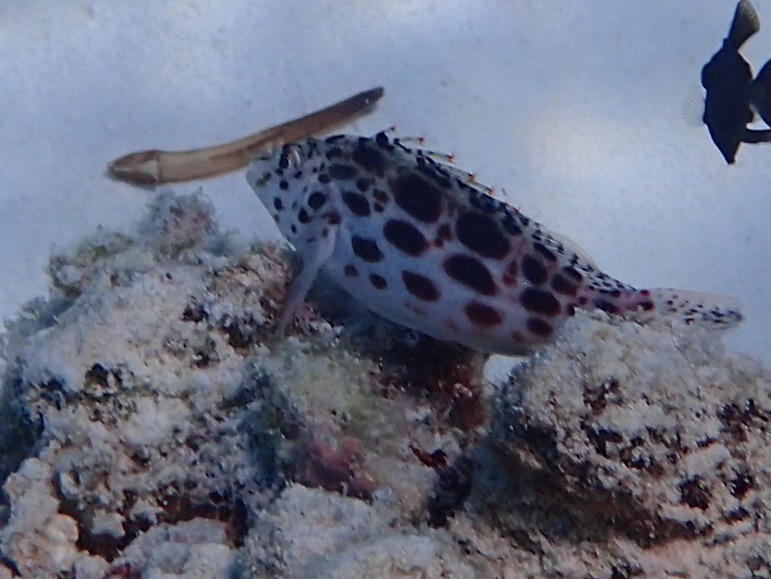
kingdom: Animalia
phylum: Chordata
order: Perciformes
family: Cirrhitidae
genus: Cirrhitichthys
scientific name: Cirrhitichthys oxycephalus
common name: Spotted hawkfish
